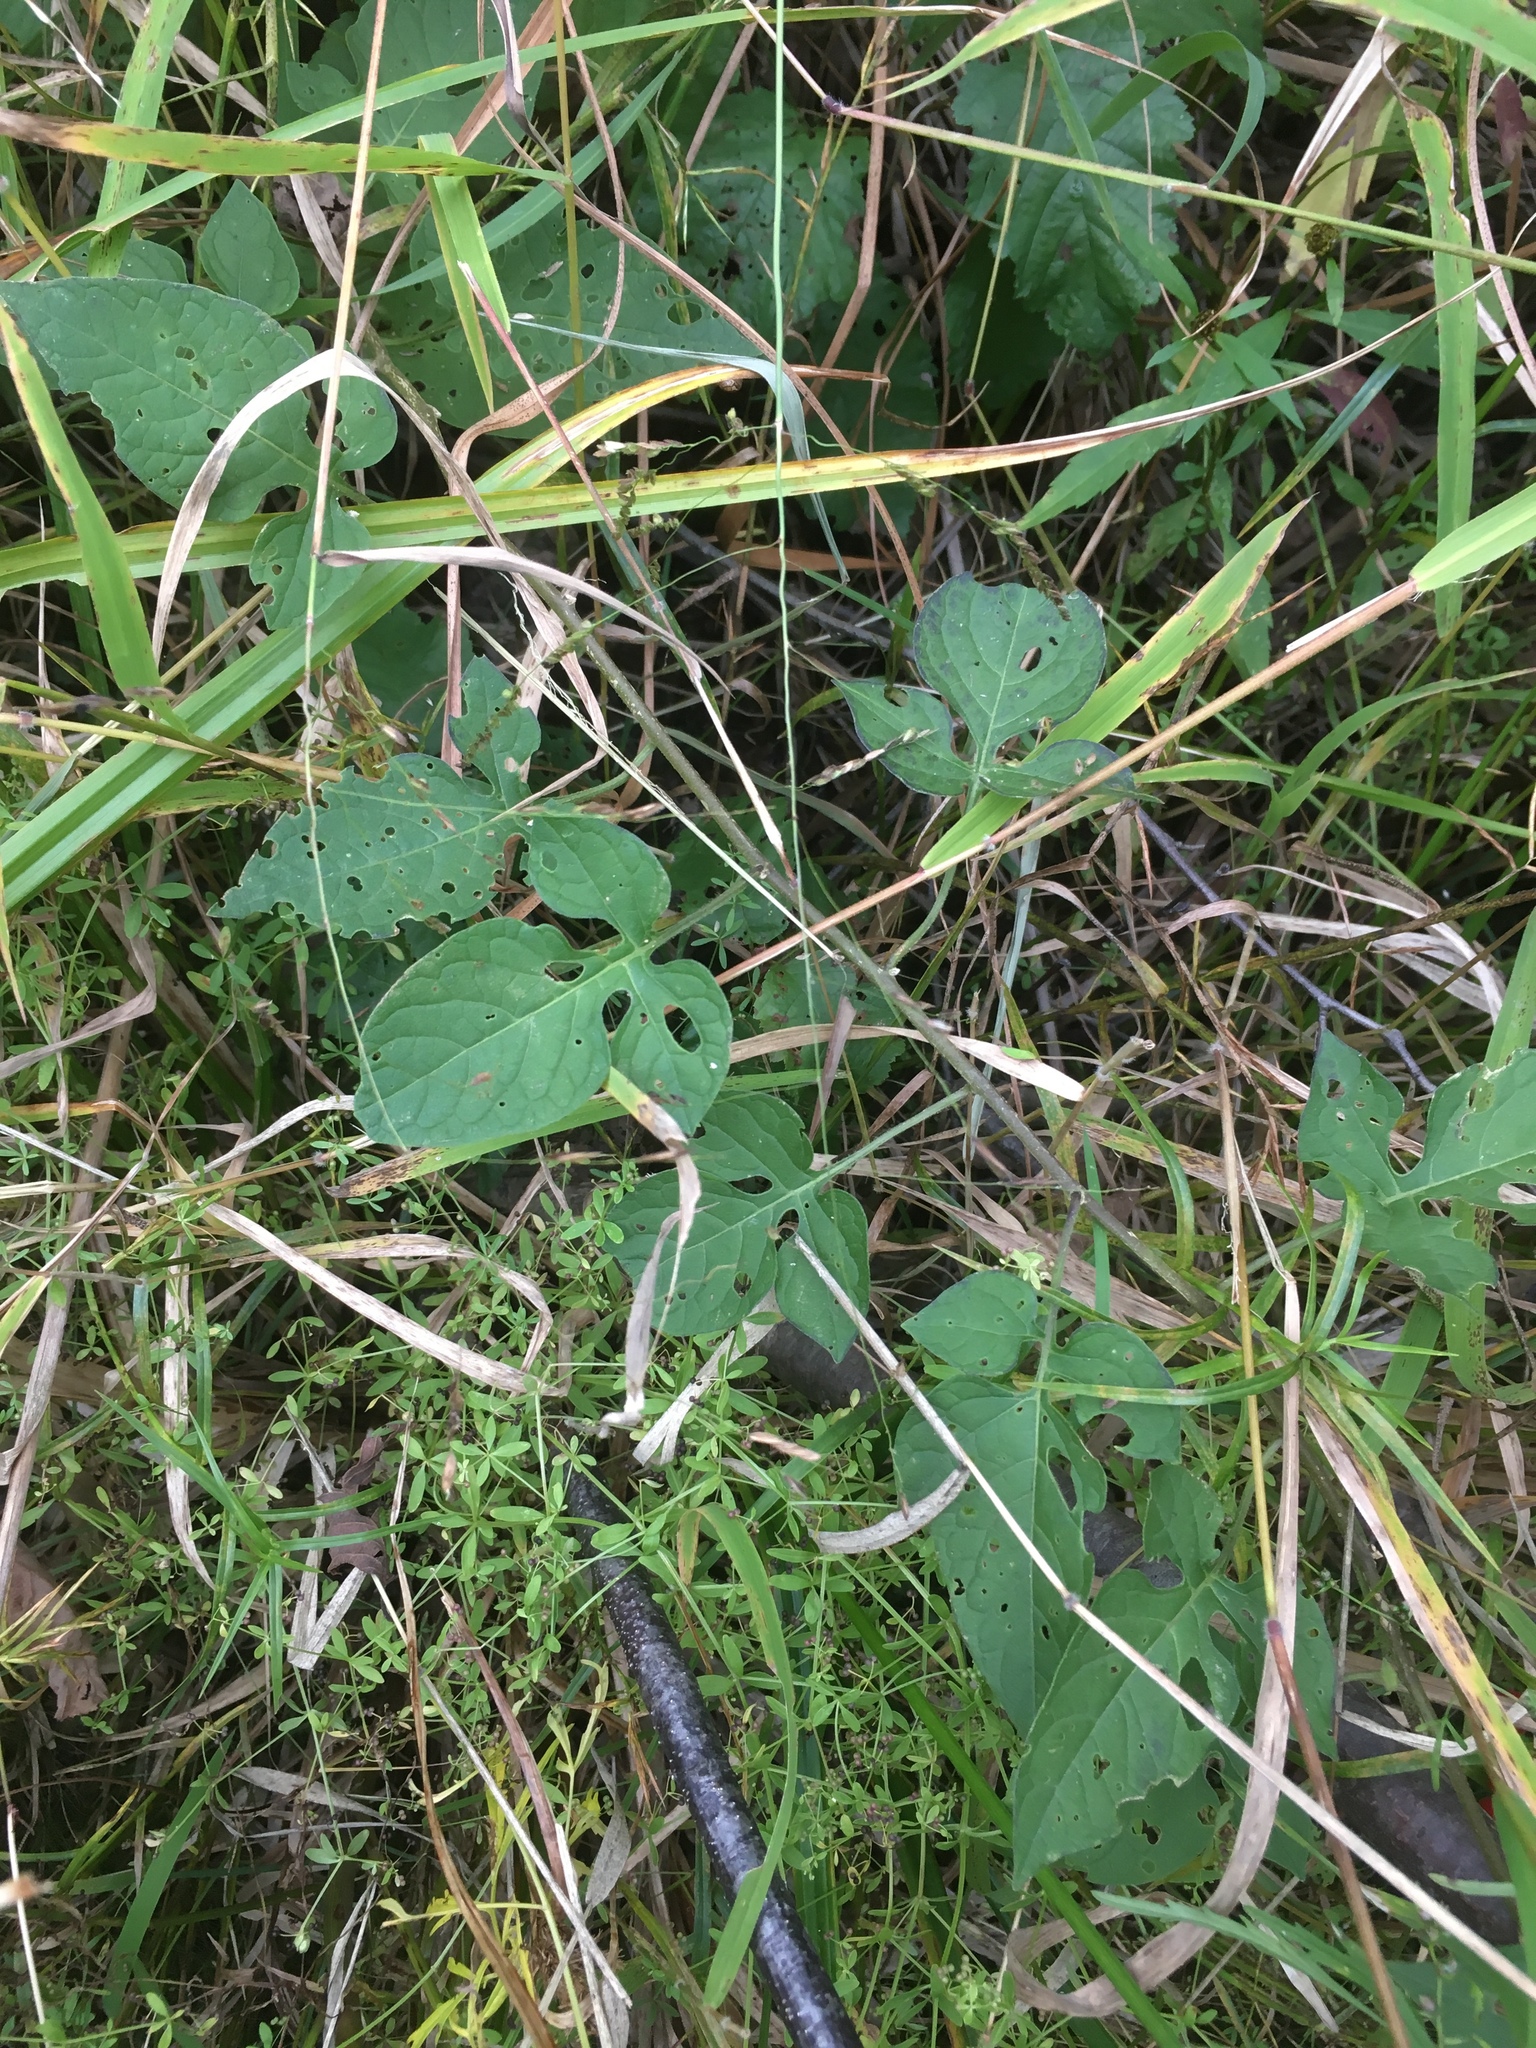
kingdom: Plantae
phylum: Tracheophyta
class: Magnoliopsida
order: Solanales
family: Solanaceae
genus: Solanum
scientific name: Solanum dulcamara
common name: Climbing nightshade
